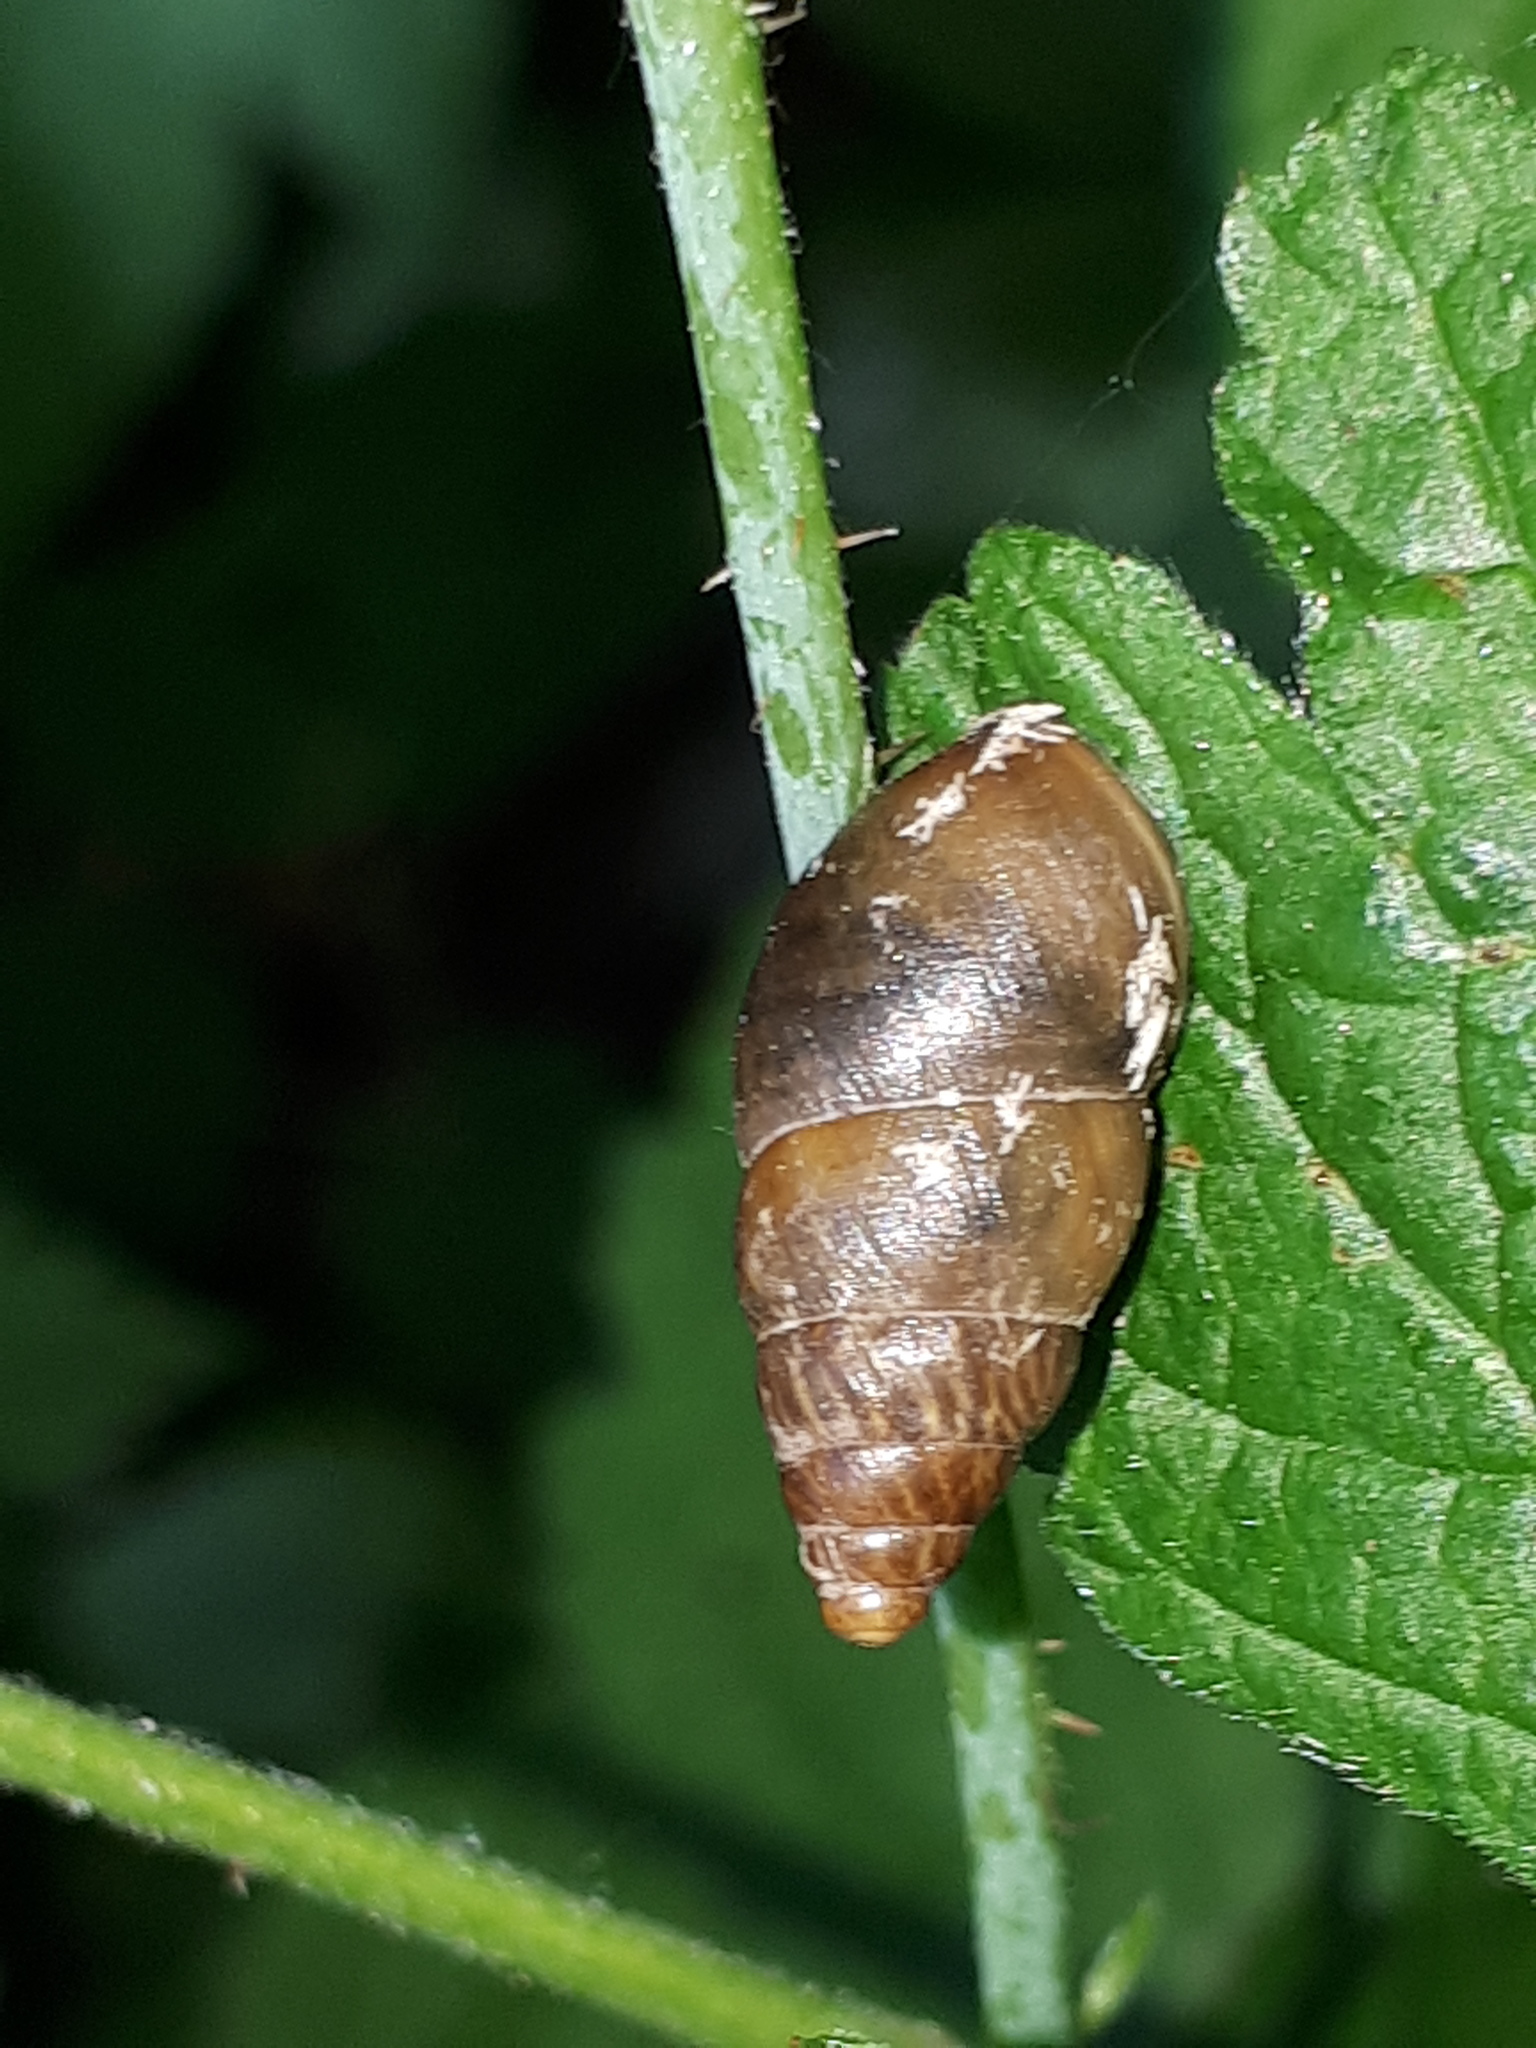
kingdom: Animalia
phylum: Mollusca
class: Gastropoda
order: Stylommatophora
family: Enidae
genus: Ena
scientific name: Ena montana
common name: Mountain bulin
